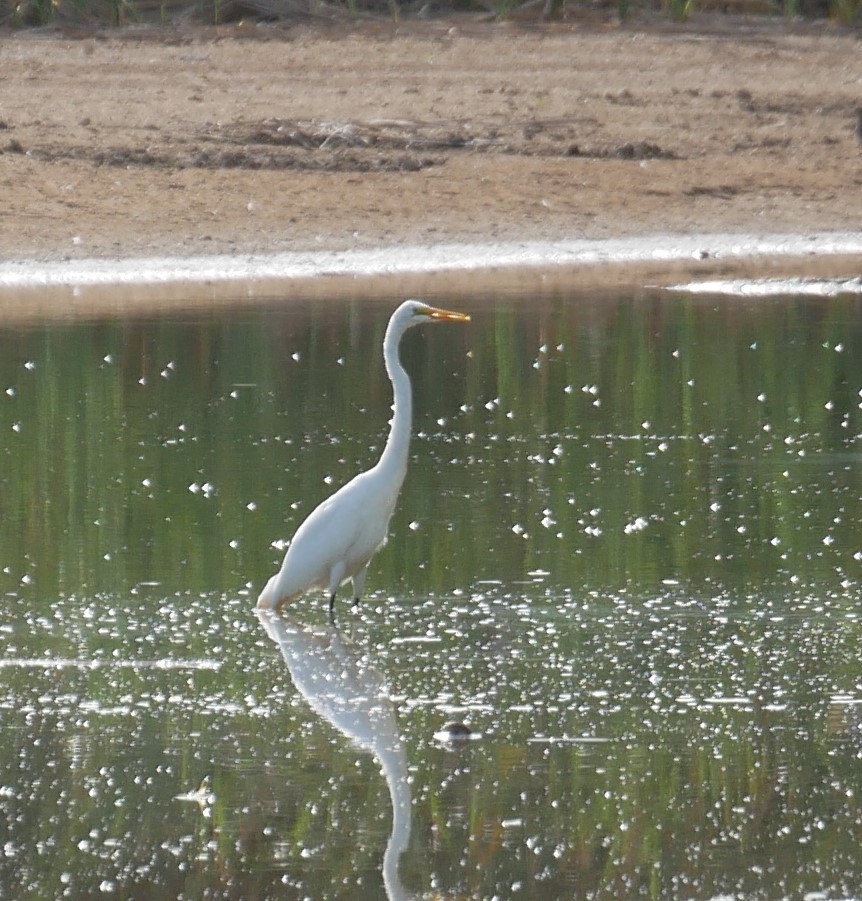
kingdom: Animalia
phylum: Chordata
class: Aves
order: Pelecaniformes
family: Ardeidae
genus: Ardea
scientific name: Ardea alba
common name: Great egret
